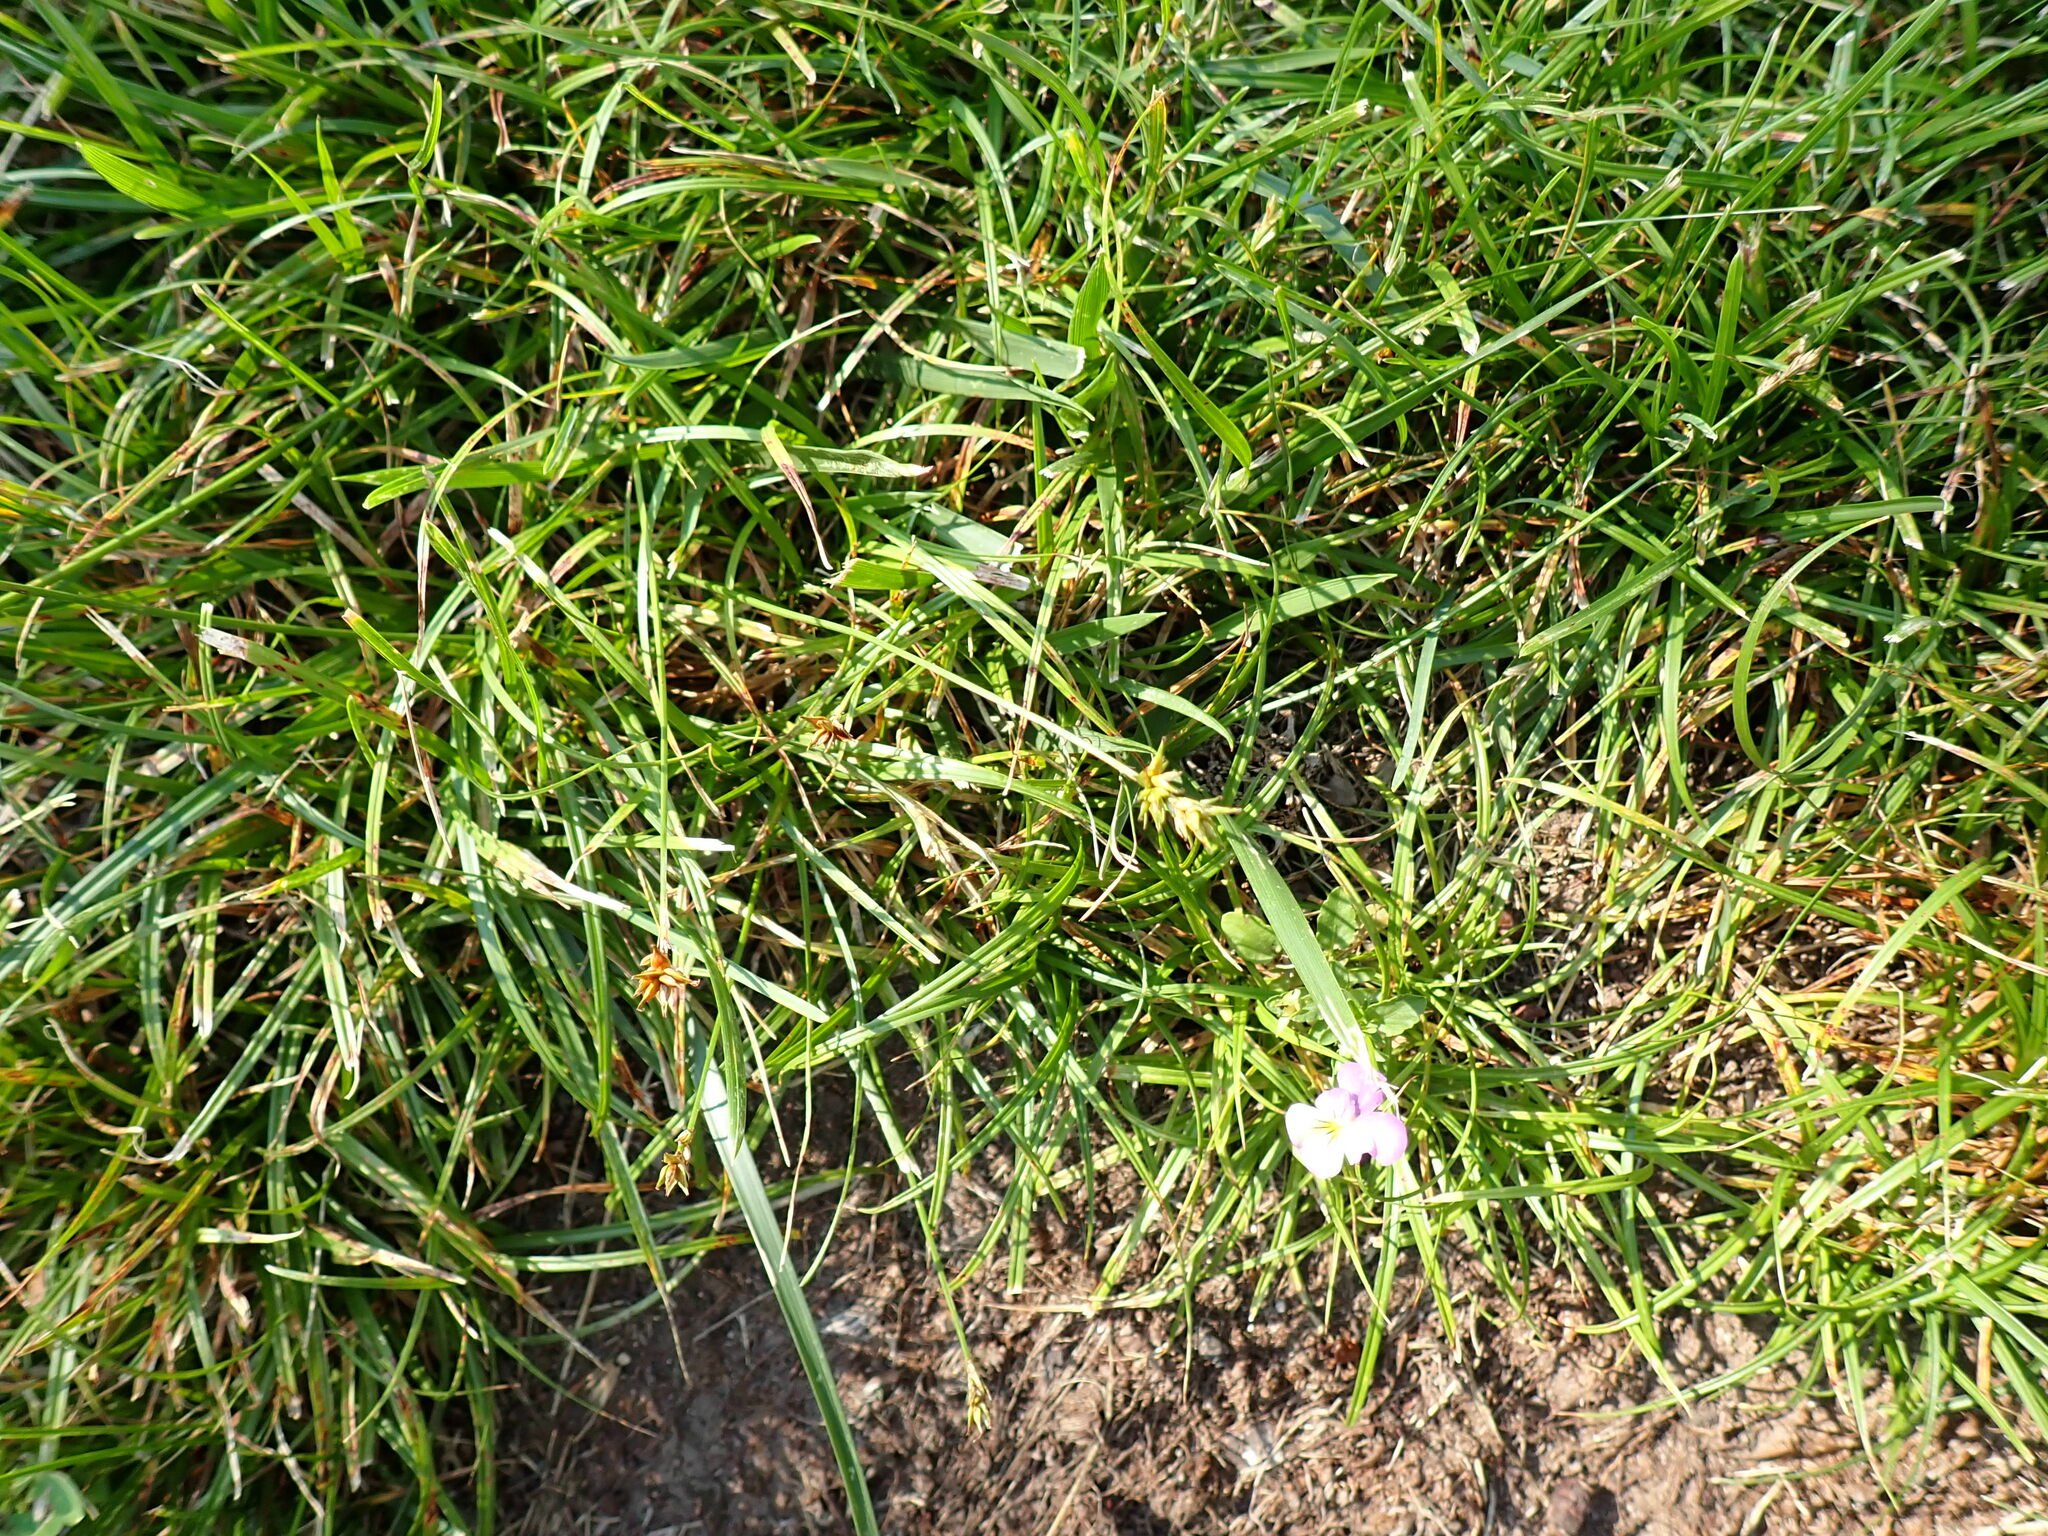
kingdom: Plantae
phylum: Tracheophyta
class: Liliopsida
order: Poales
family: Cyperaceae
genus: Carex
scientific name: Carex spicata
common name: Spiked sedge
